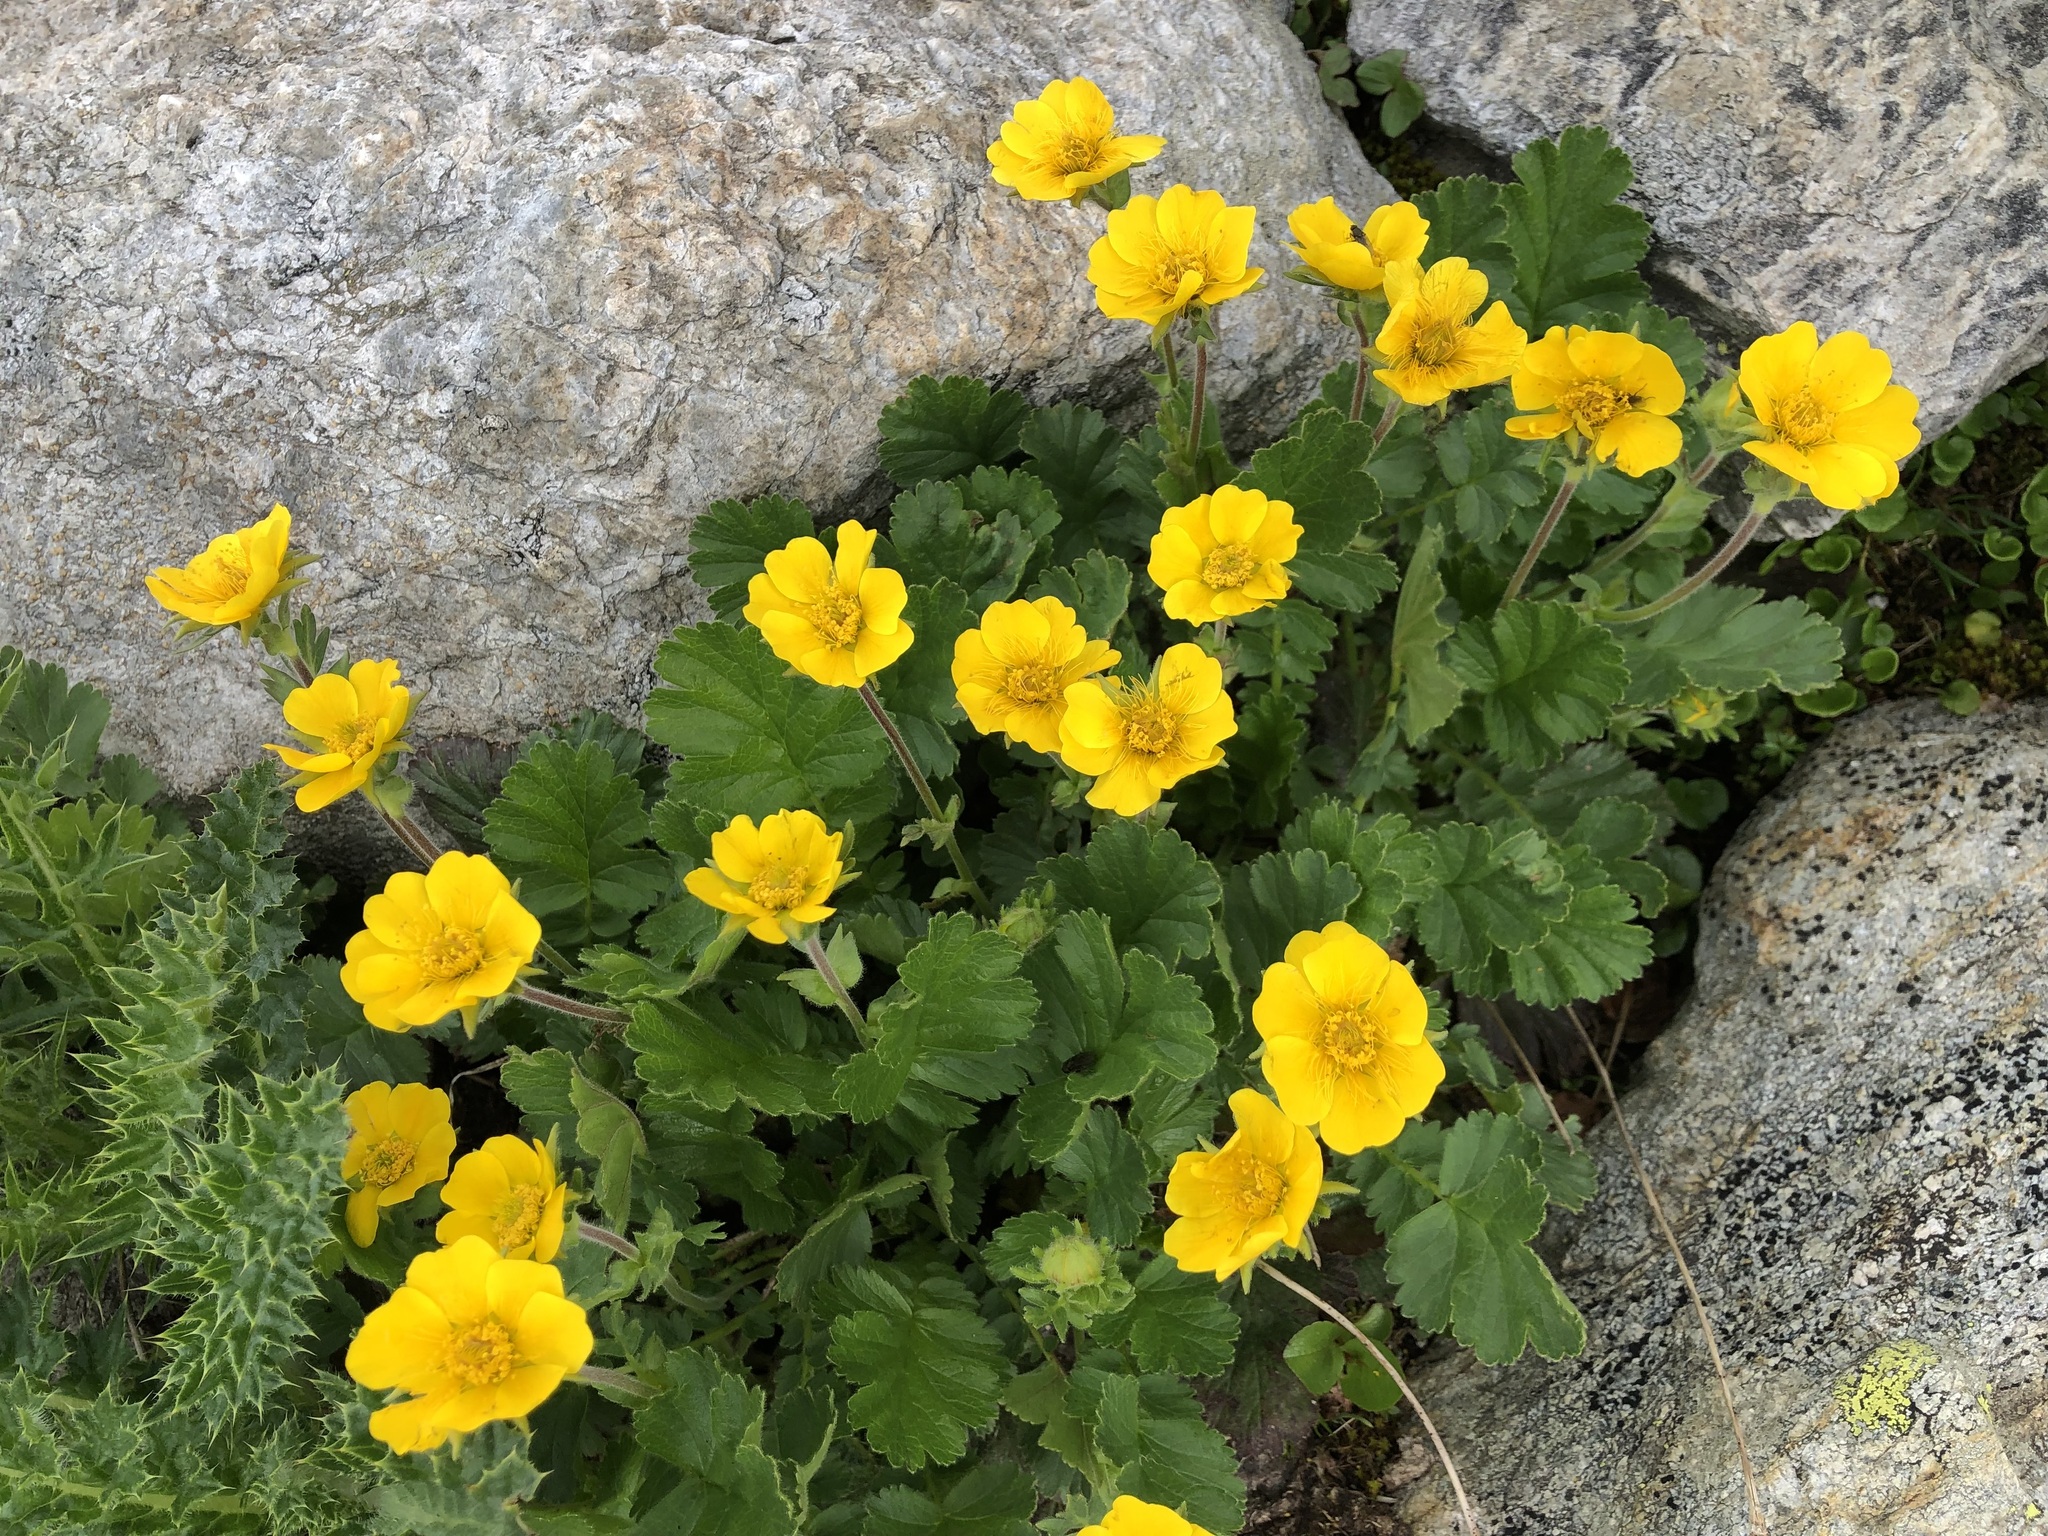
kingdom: Plantae
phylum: Tracheophyta
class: Magnoliopsida
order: Rosales
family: Rosaceae
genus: Geum
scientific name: Geum montanum
